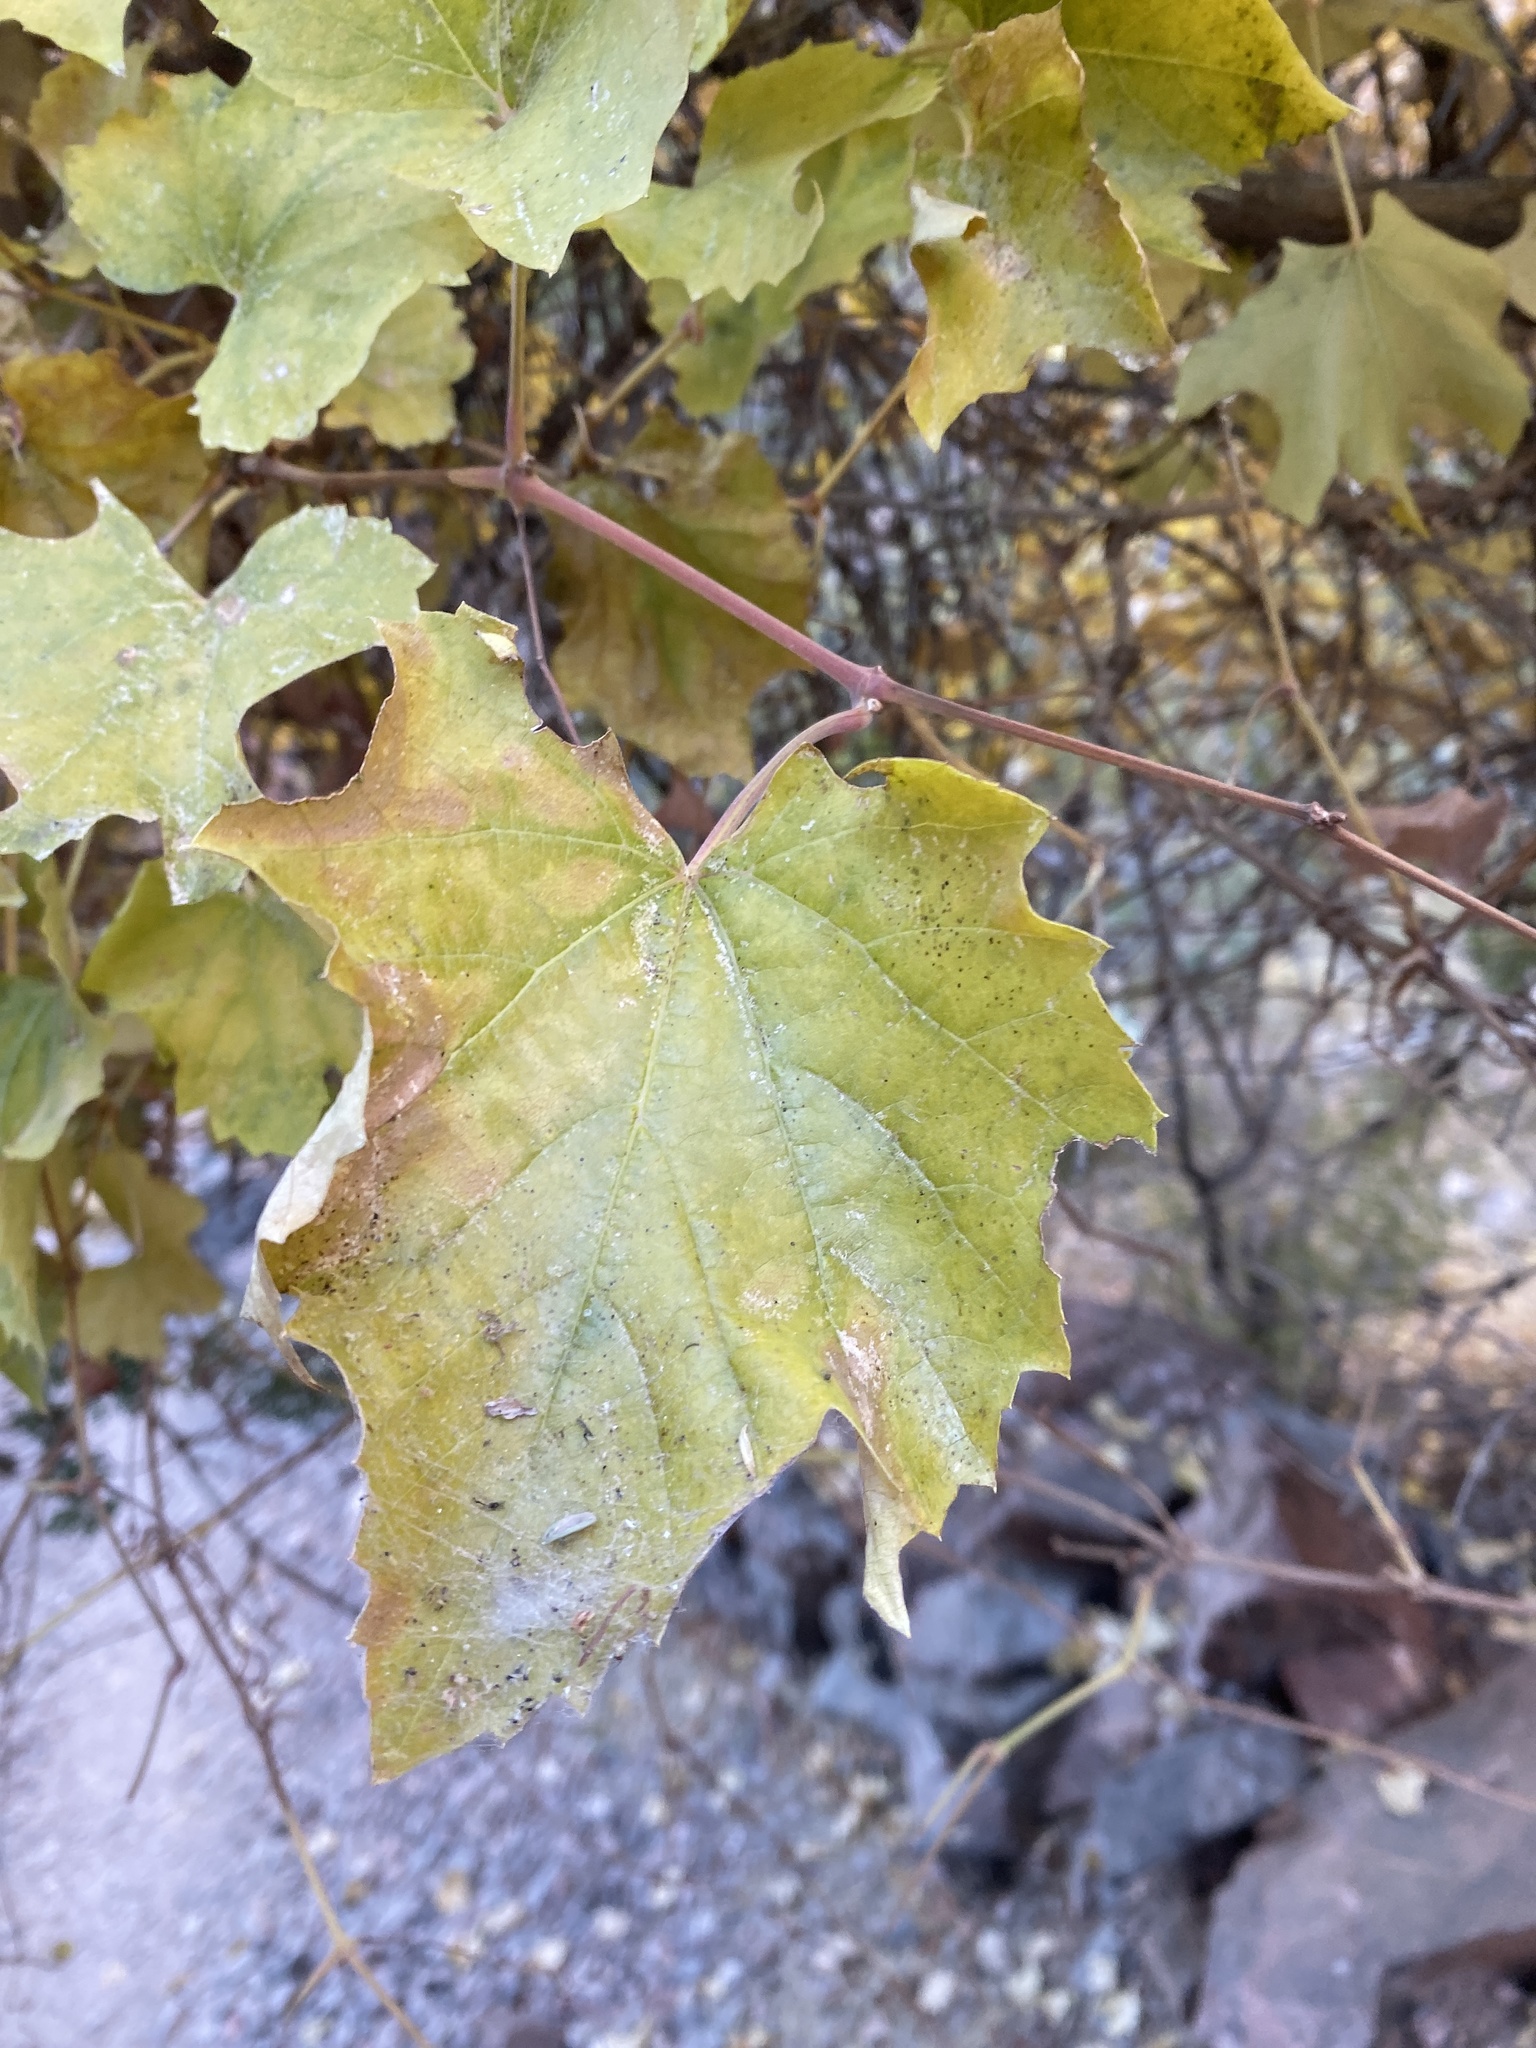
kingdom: Plantae
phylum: Tracheophyta
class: Magnoliopsida
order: Vitales
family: Vitaceae
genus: Vitis
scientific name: Vitis arizonica
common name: Canyon grape
